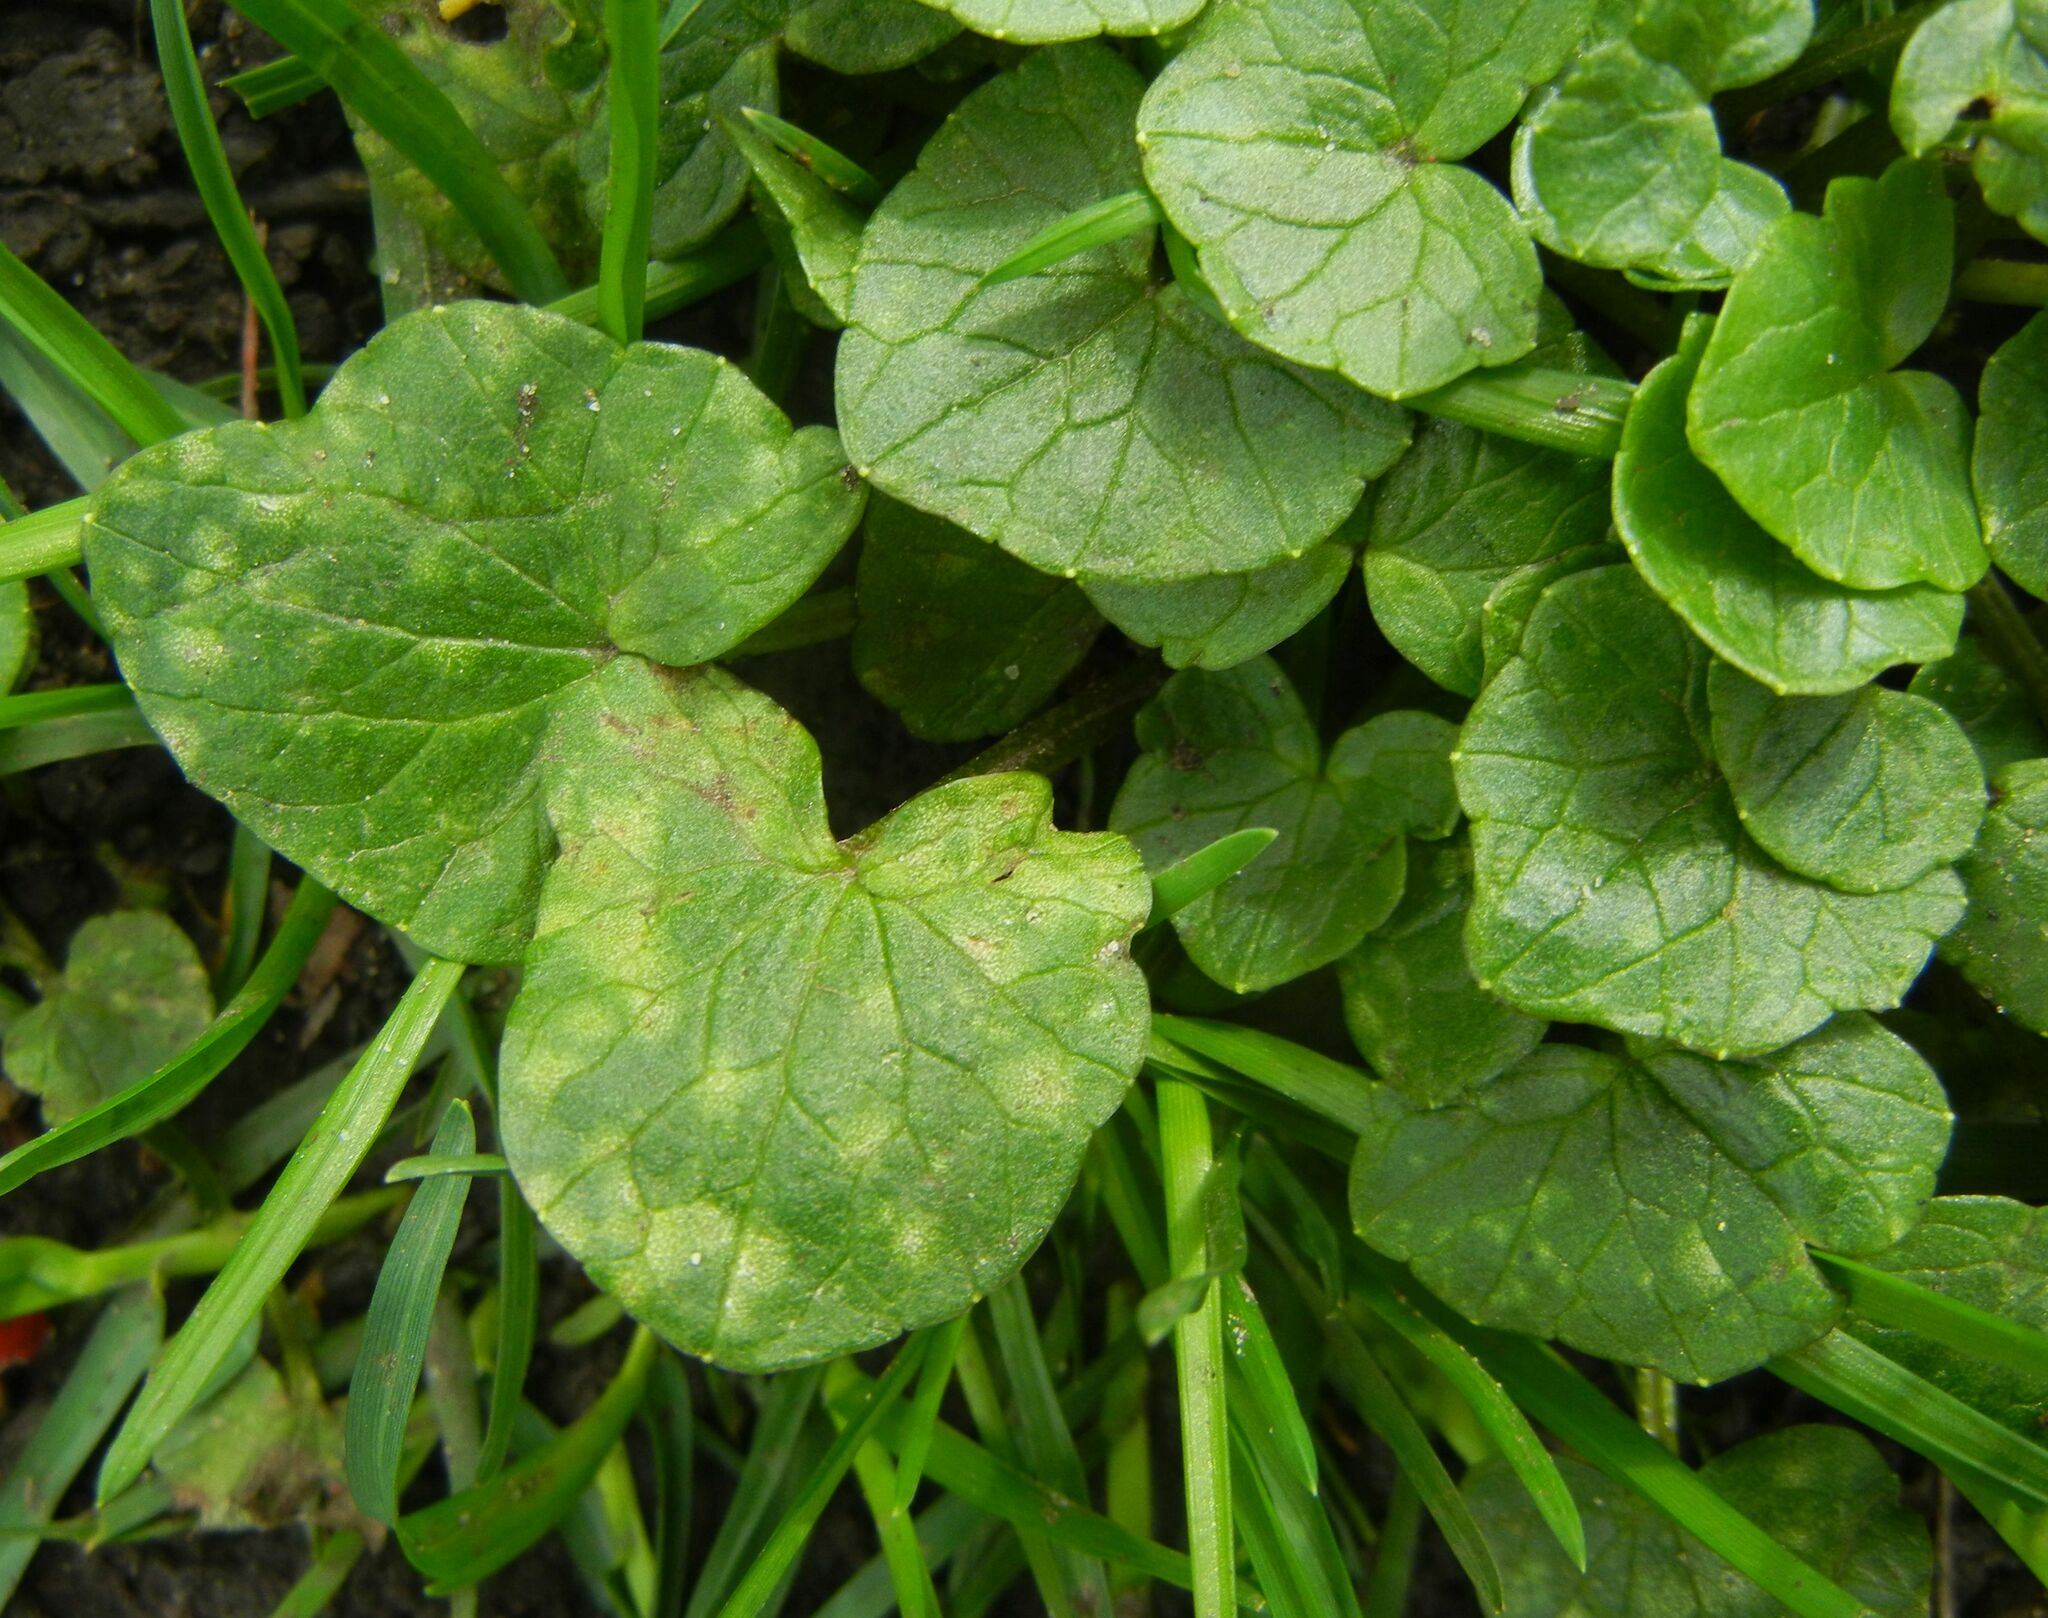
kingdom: Fungi
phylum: Basidiomycota
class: Exobasidiomycetes
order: Entylomatales
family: Entylomataceae
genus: Entyloma
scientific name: Entyloma ficariae
